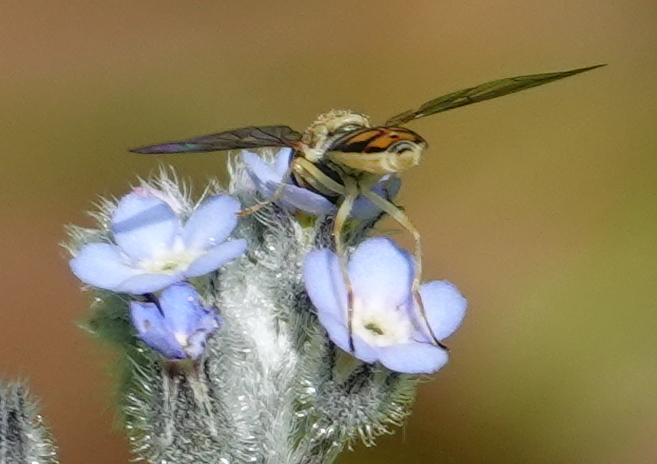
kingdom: Animalia
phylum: Arthropoda
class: Insecta
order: Diptera
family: Syrphidae
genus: Toxomerus
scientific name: Toxomerus marginatus
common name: Syrphid fly
